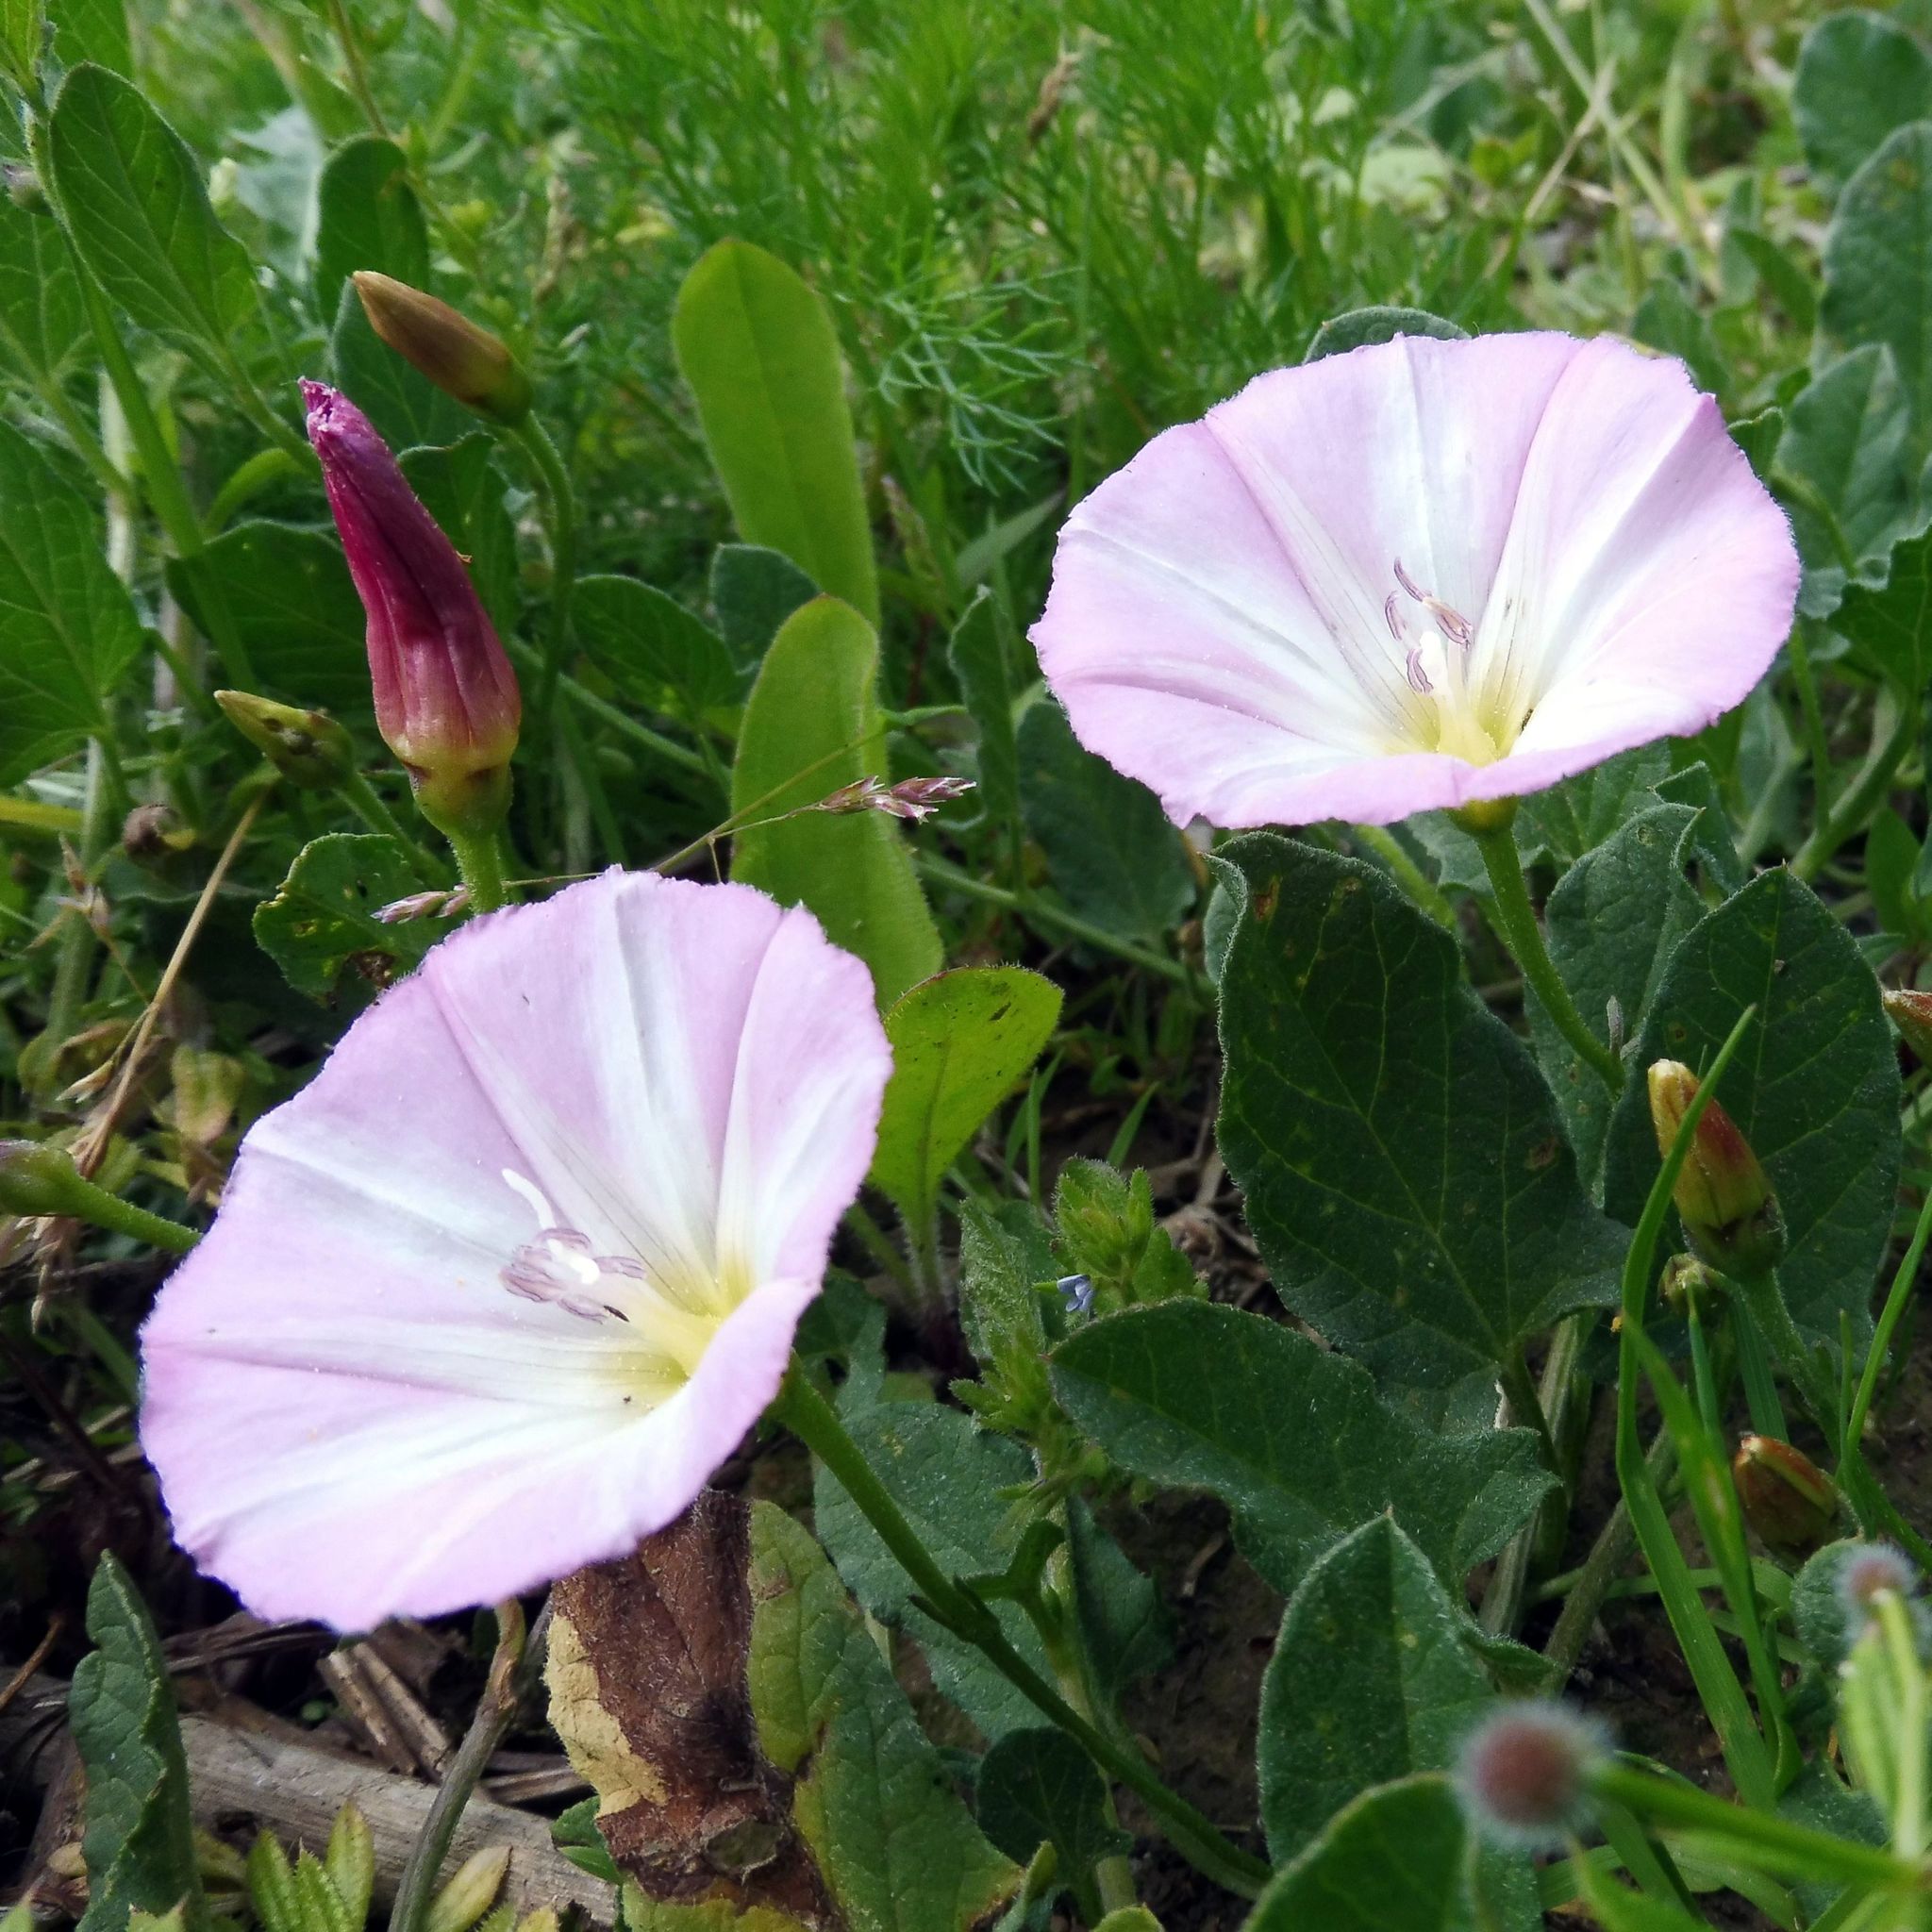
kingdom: Plantae
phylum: Tracheophyta
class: Magnoliopsida
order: Solanales
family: Convolvulaceae
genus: Convolvulus
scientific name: Convolvulus arvensis
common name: Field bindweed
